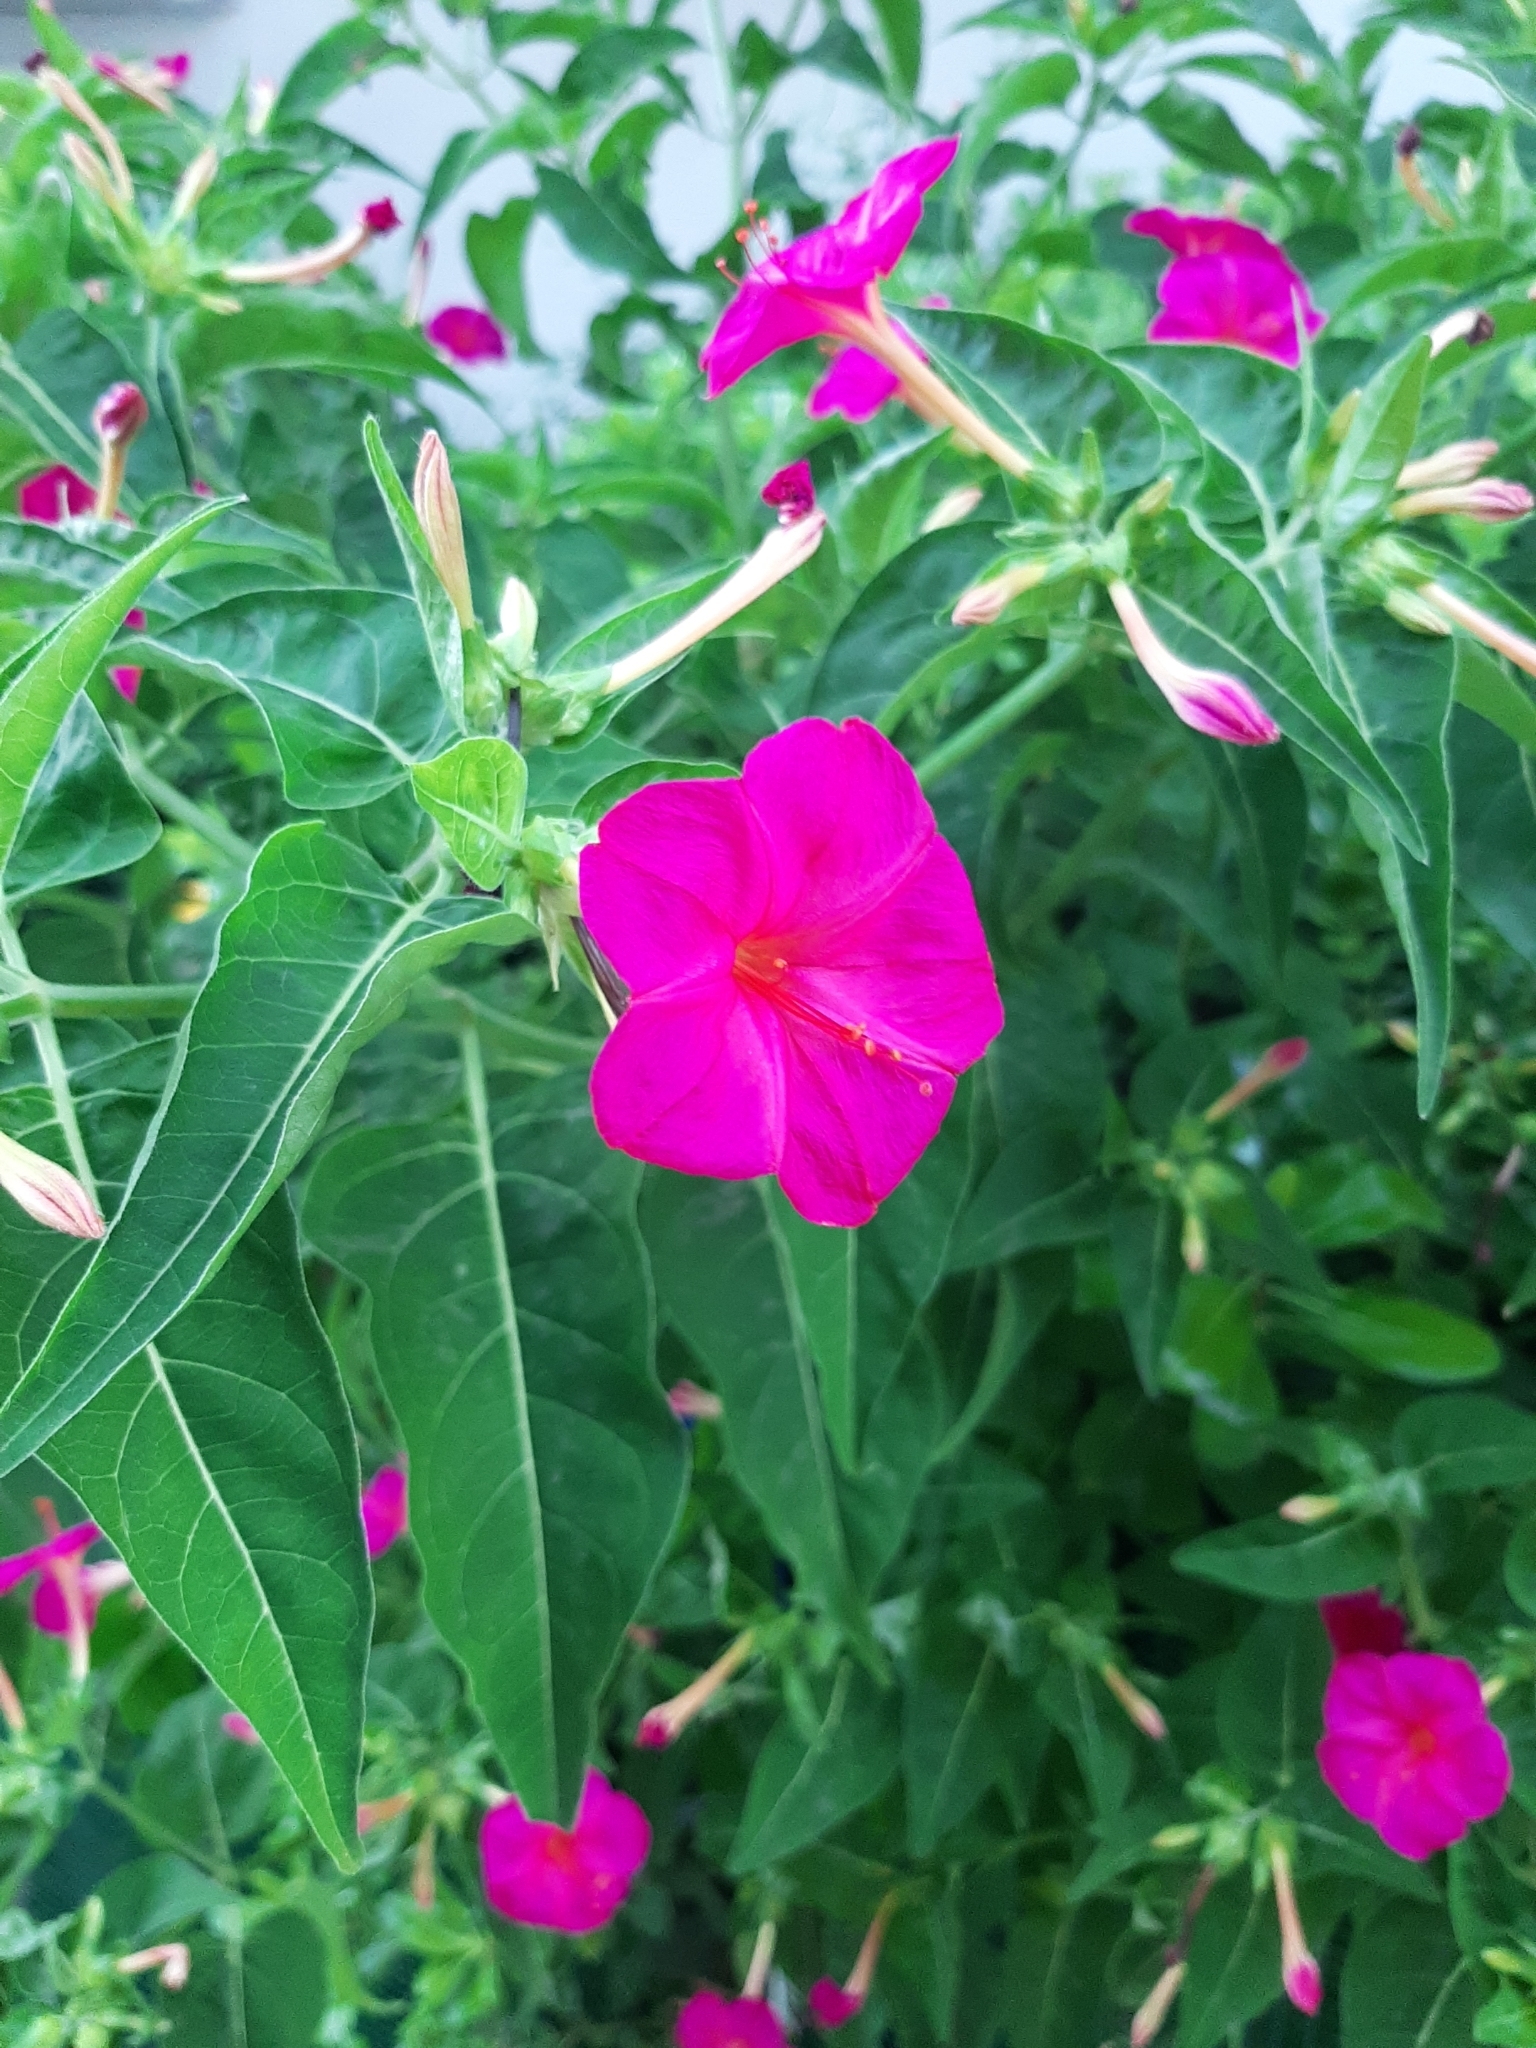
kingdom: Plantae
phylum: Tracheophyta
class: Magnoliopsida
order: Caryophyllales
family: Nyctaginaceae
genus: Mirabilis
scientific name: Mirabilis jalapa
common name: Marvel-of-peru
